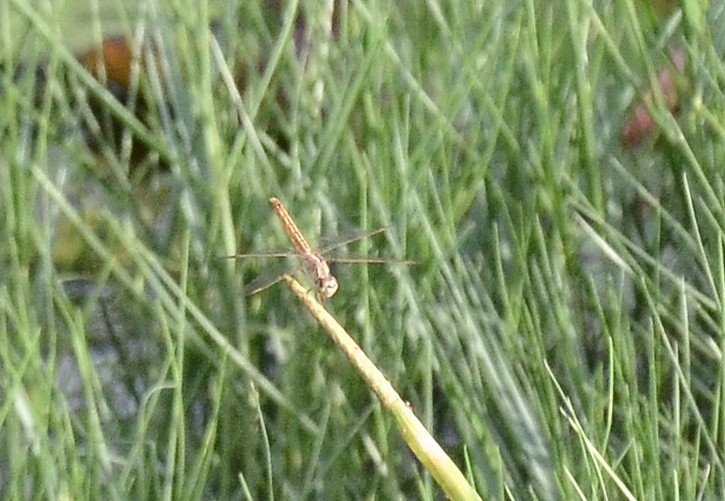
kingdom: Animalia
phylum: Arthropoda
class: Insecta
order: Odonata
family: Libellulidae
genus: Brachythemis
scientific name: Brachythemis contaminata
